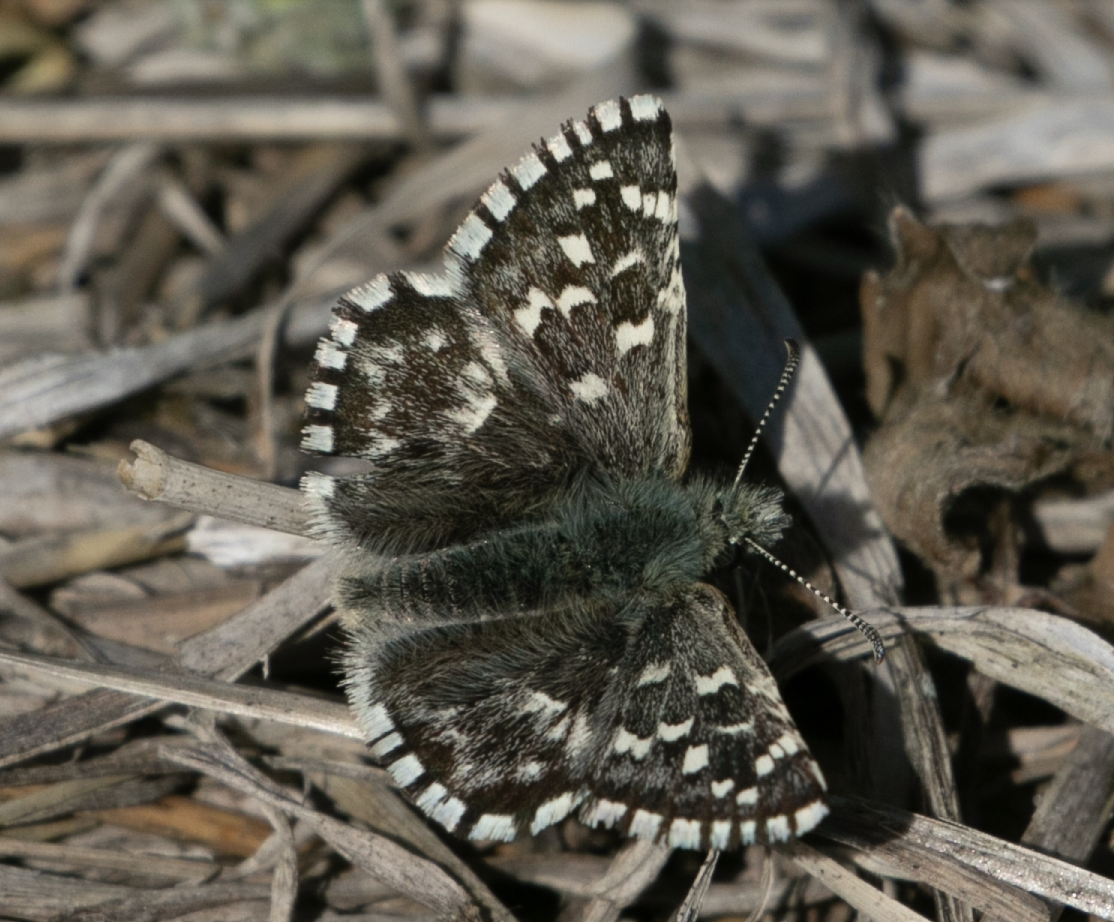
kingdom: Animalia
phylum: Arthropoda
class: Insecta
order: Lepidoptera
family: Hesperiidae
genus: Pyrgus
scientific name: Pyrgus malvoides
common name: Southern grizzled skipper
